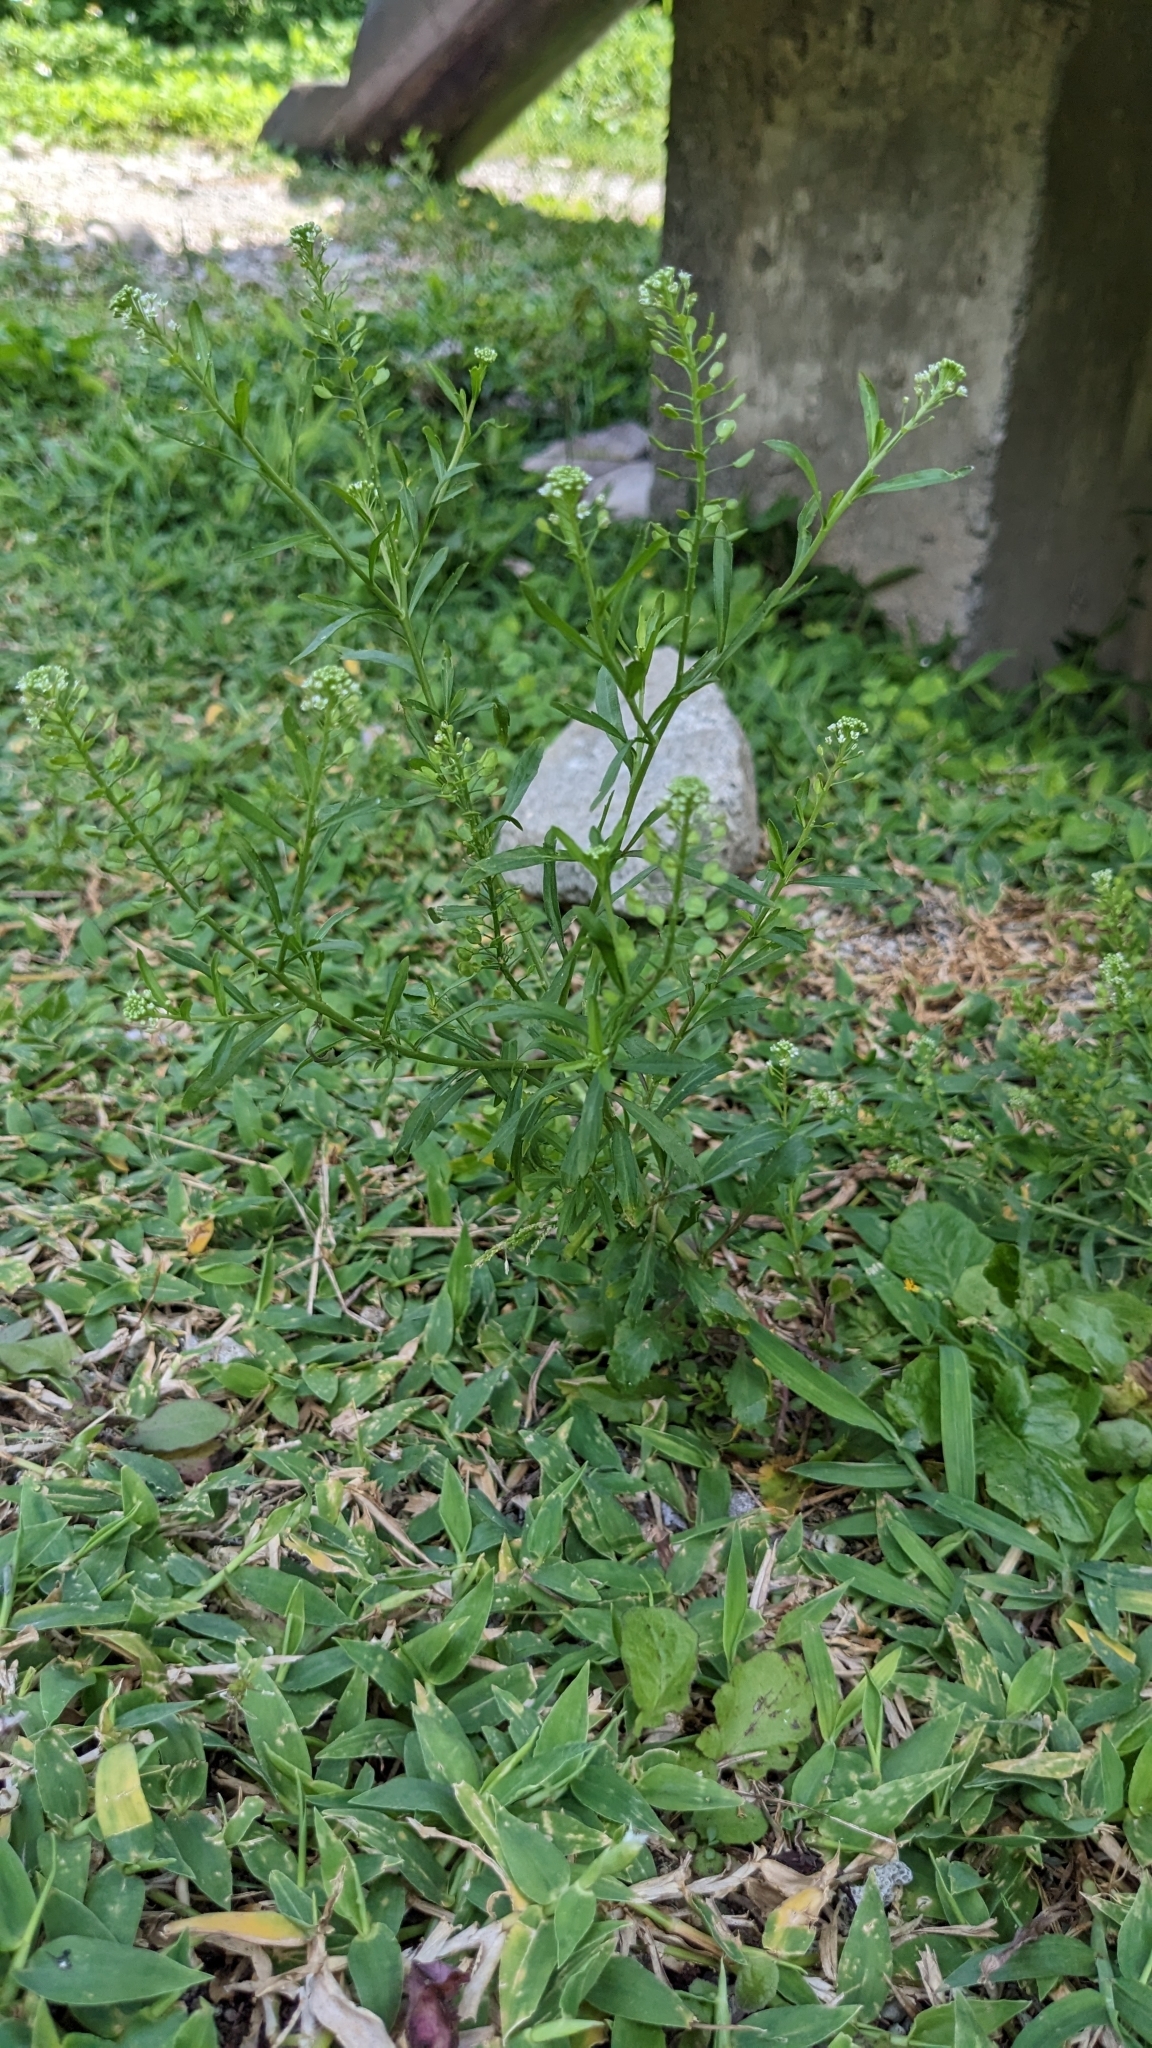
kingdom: Plantae
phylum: Tracheophyta
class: Magnoliopsida
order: Brassicales
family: Brassicaceae
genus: Lepidium
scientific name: Lepidium virginicum
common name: Least pepperwort
